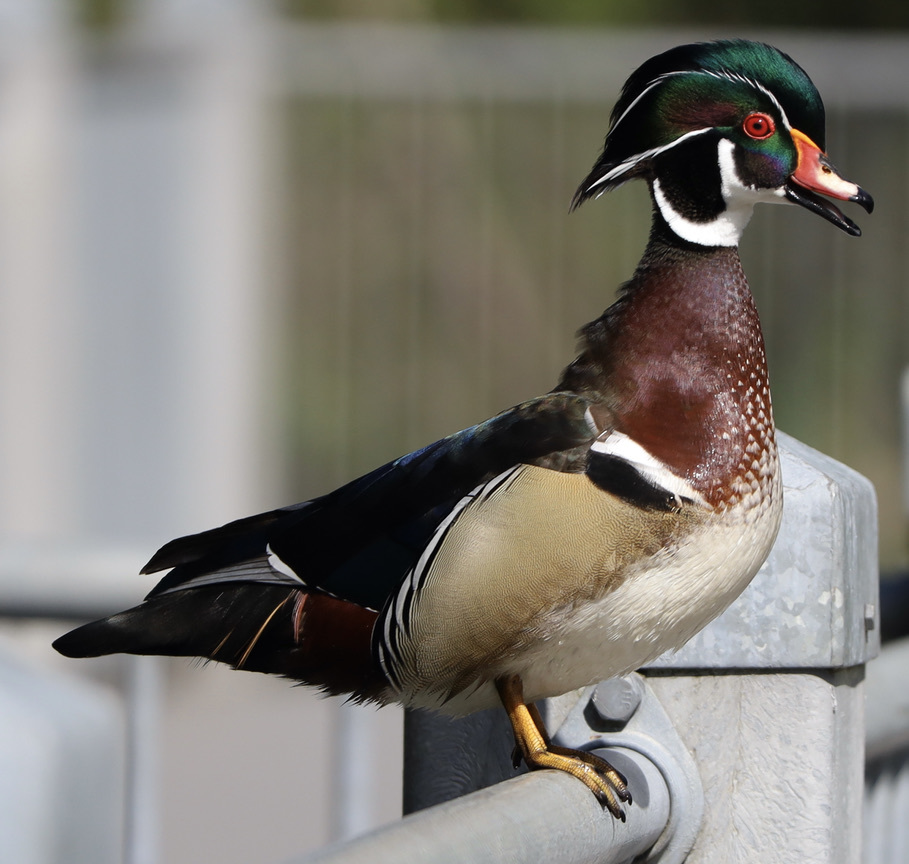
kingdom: Animalia
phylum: Chordata
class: Aves
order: Anseriformes
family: Anatidae
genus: Aix
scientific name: Aix sponsa
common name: Wood duck
